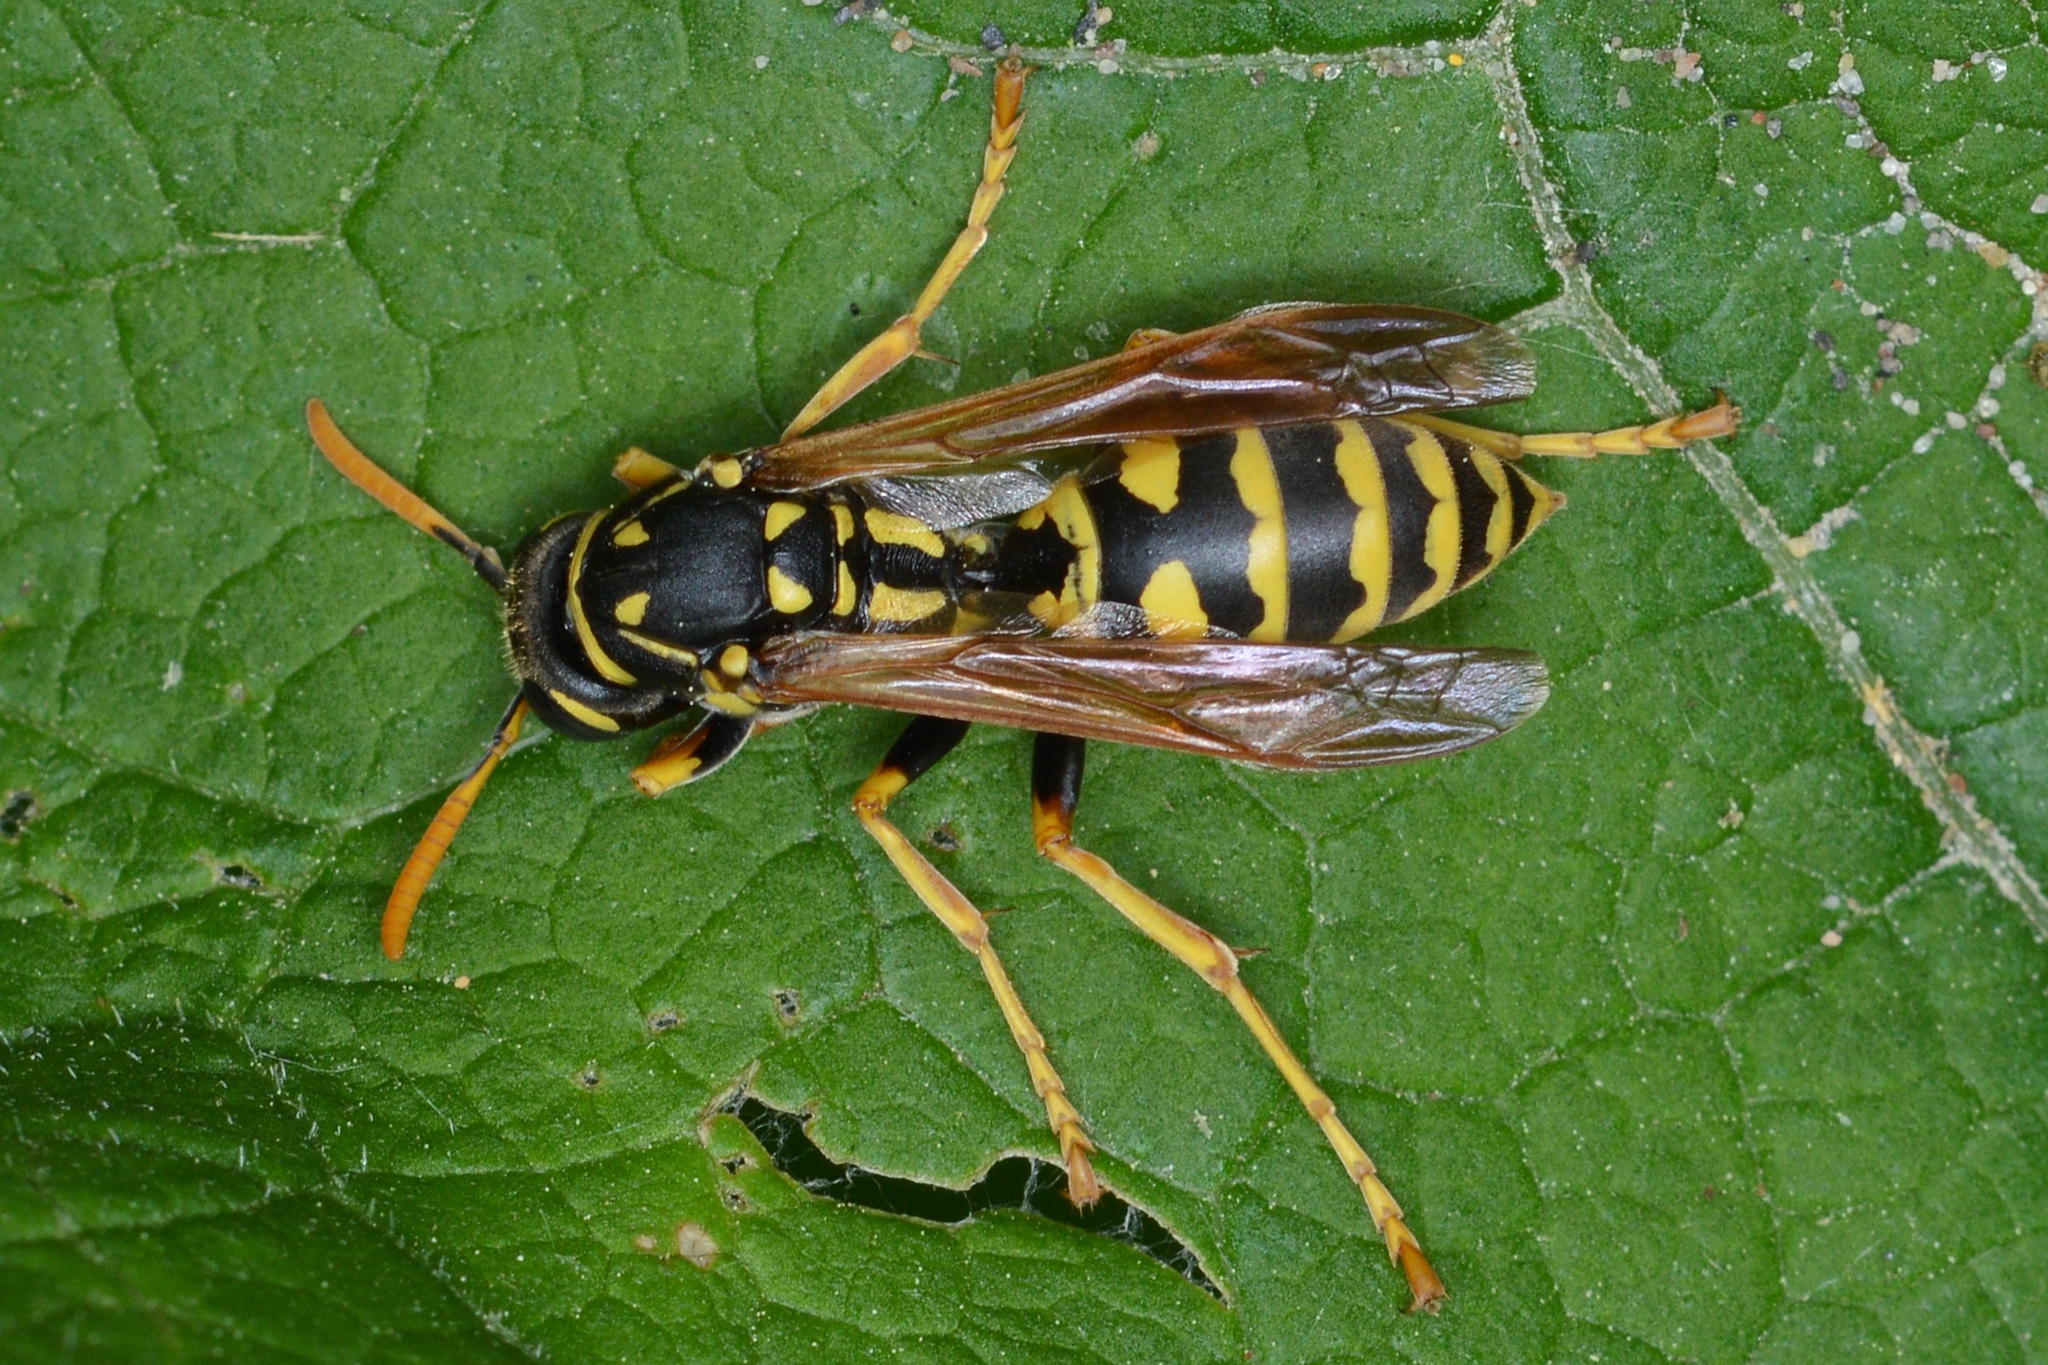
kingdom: Animalia
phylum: Arthropoda
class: Insecta
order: Hymenoptera
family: Eumenidae
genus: Polistes
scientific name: Polistes dominula
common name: Paper wasp
